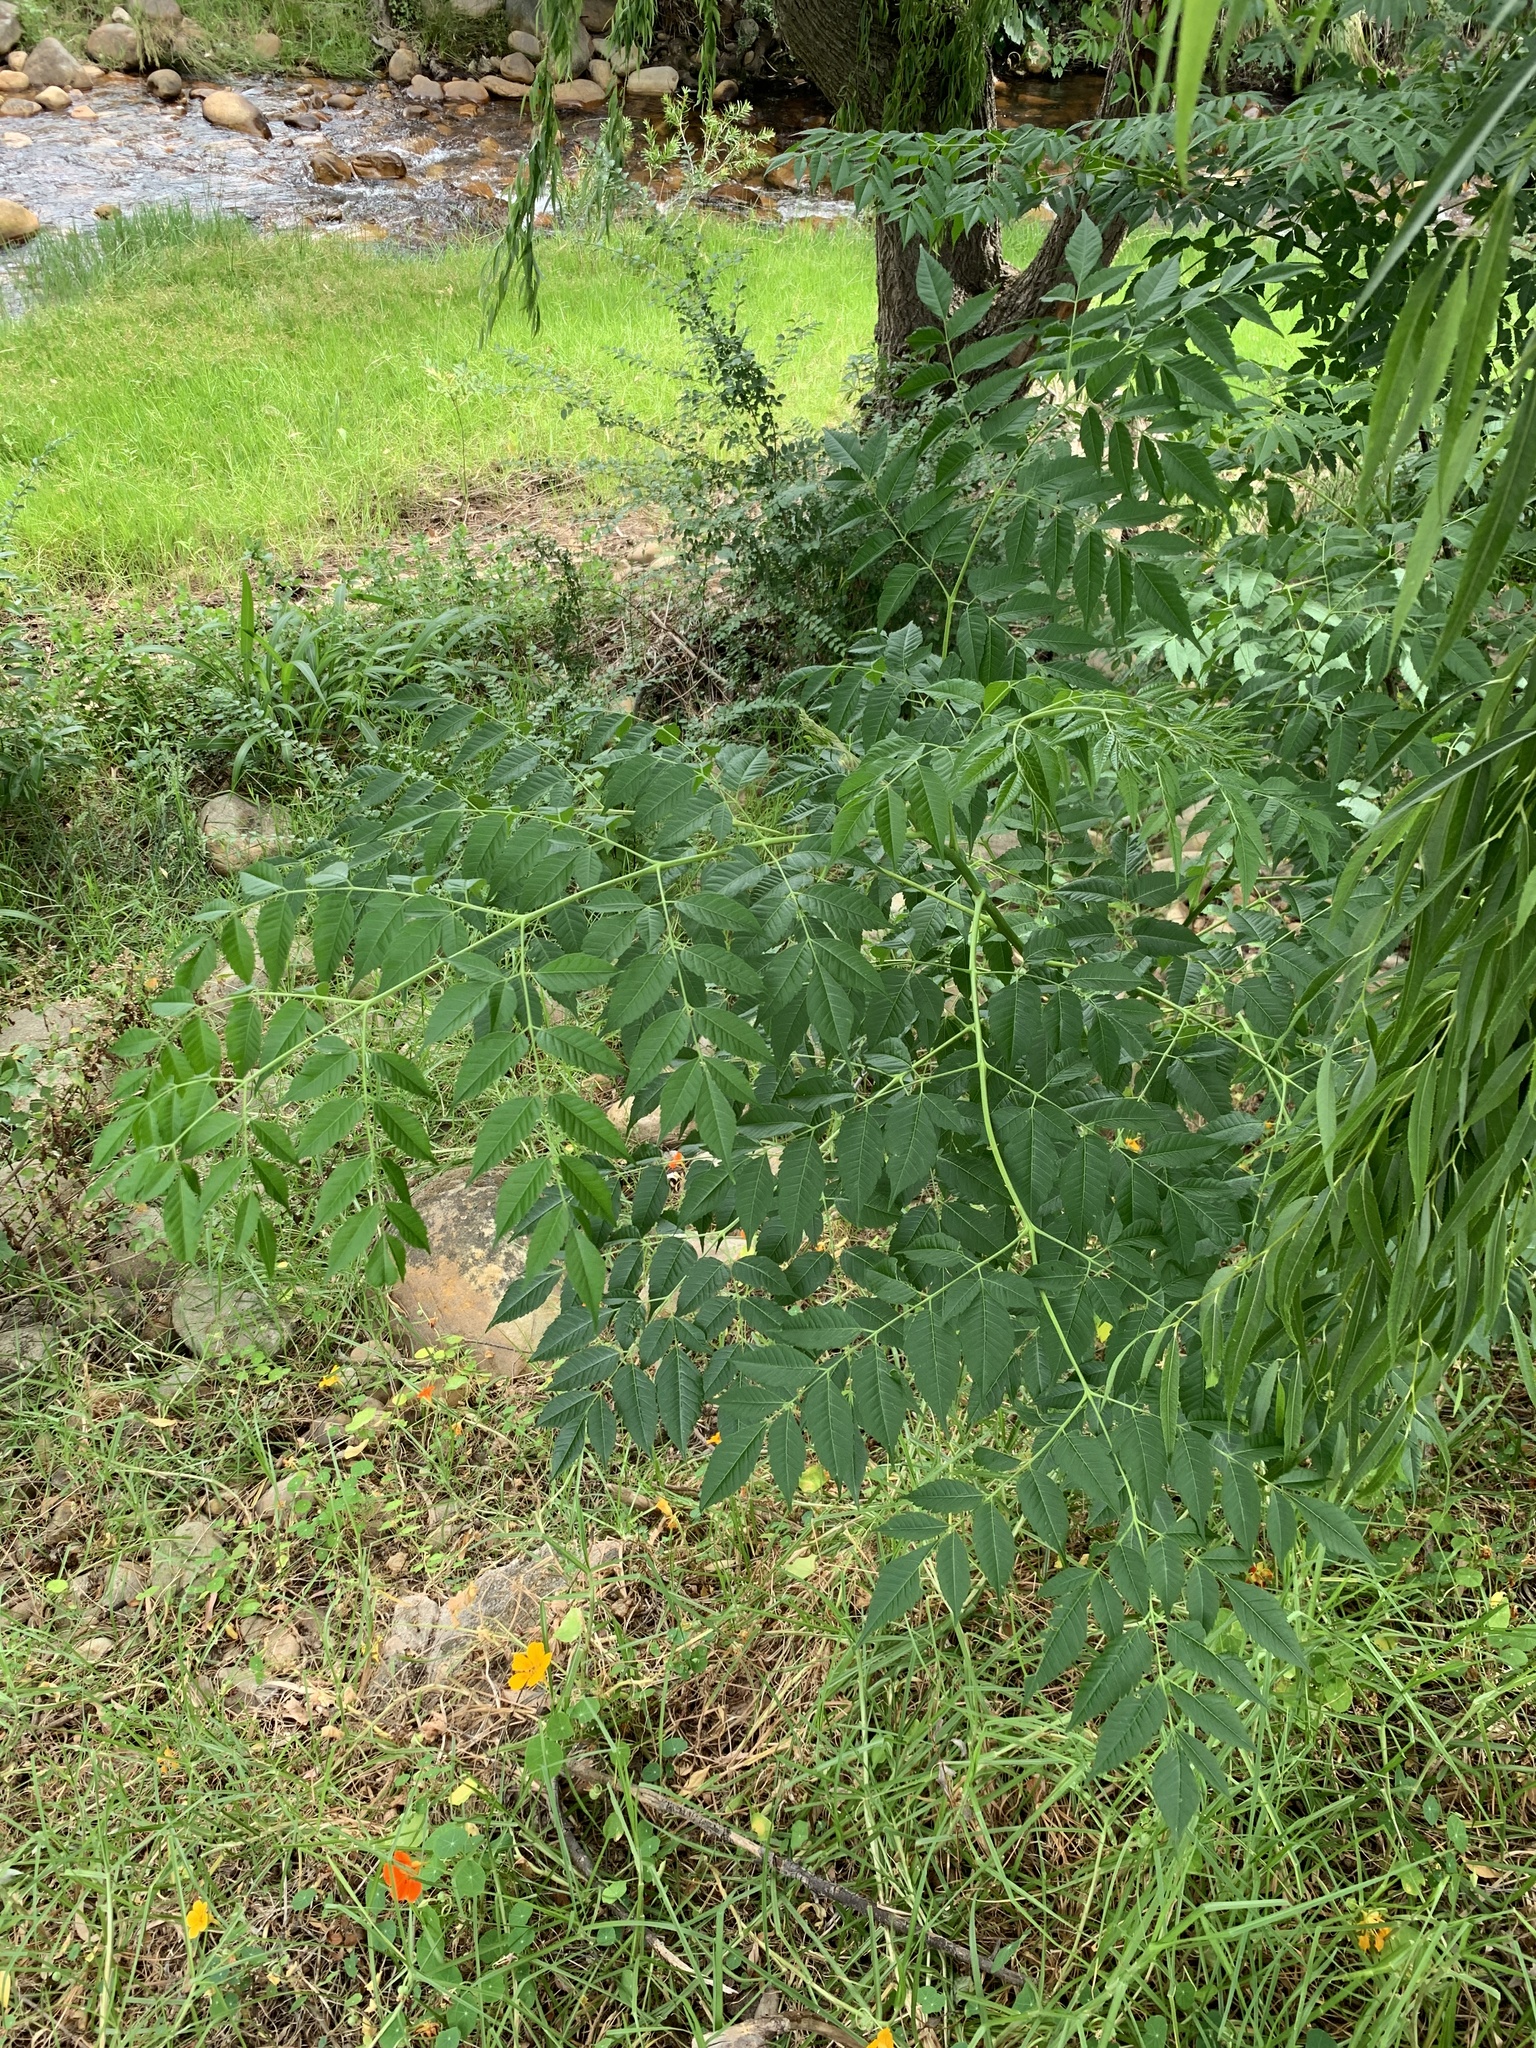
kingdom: Plantae
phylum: Tracheophyta
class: Magnoliopsida
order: Sapindales
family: Meliaceae
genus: Melia
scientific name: Melia azedarach
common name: Chinaberrytree
